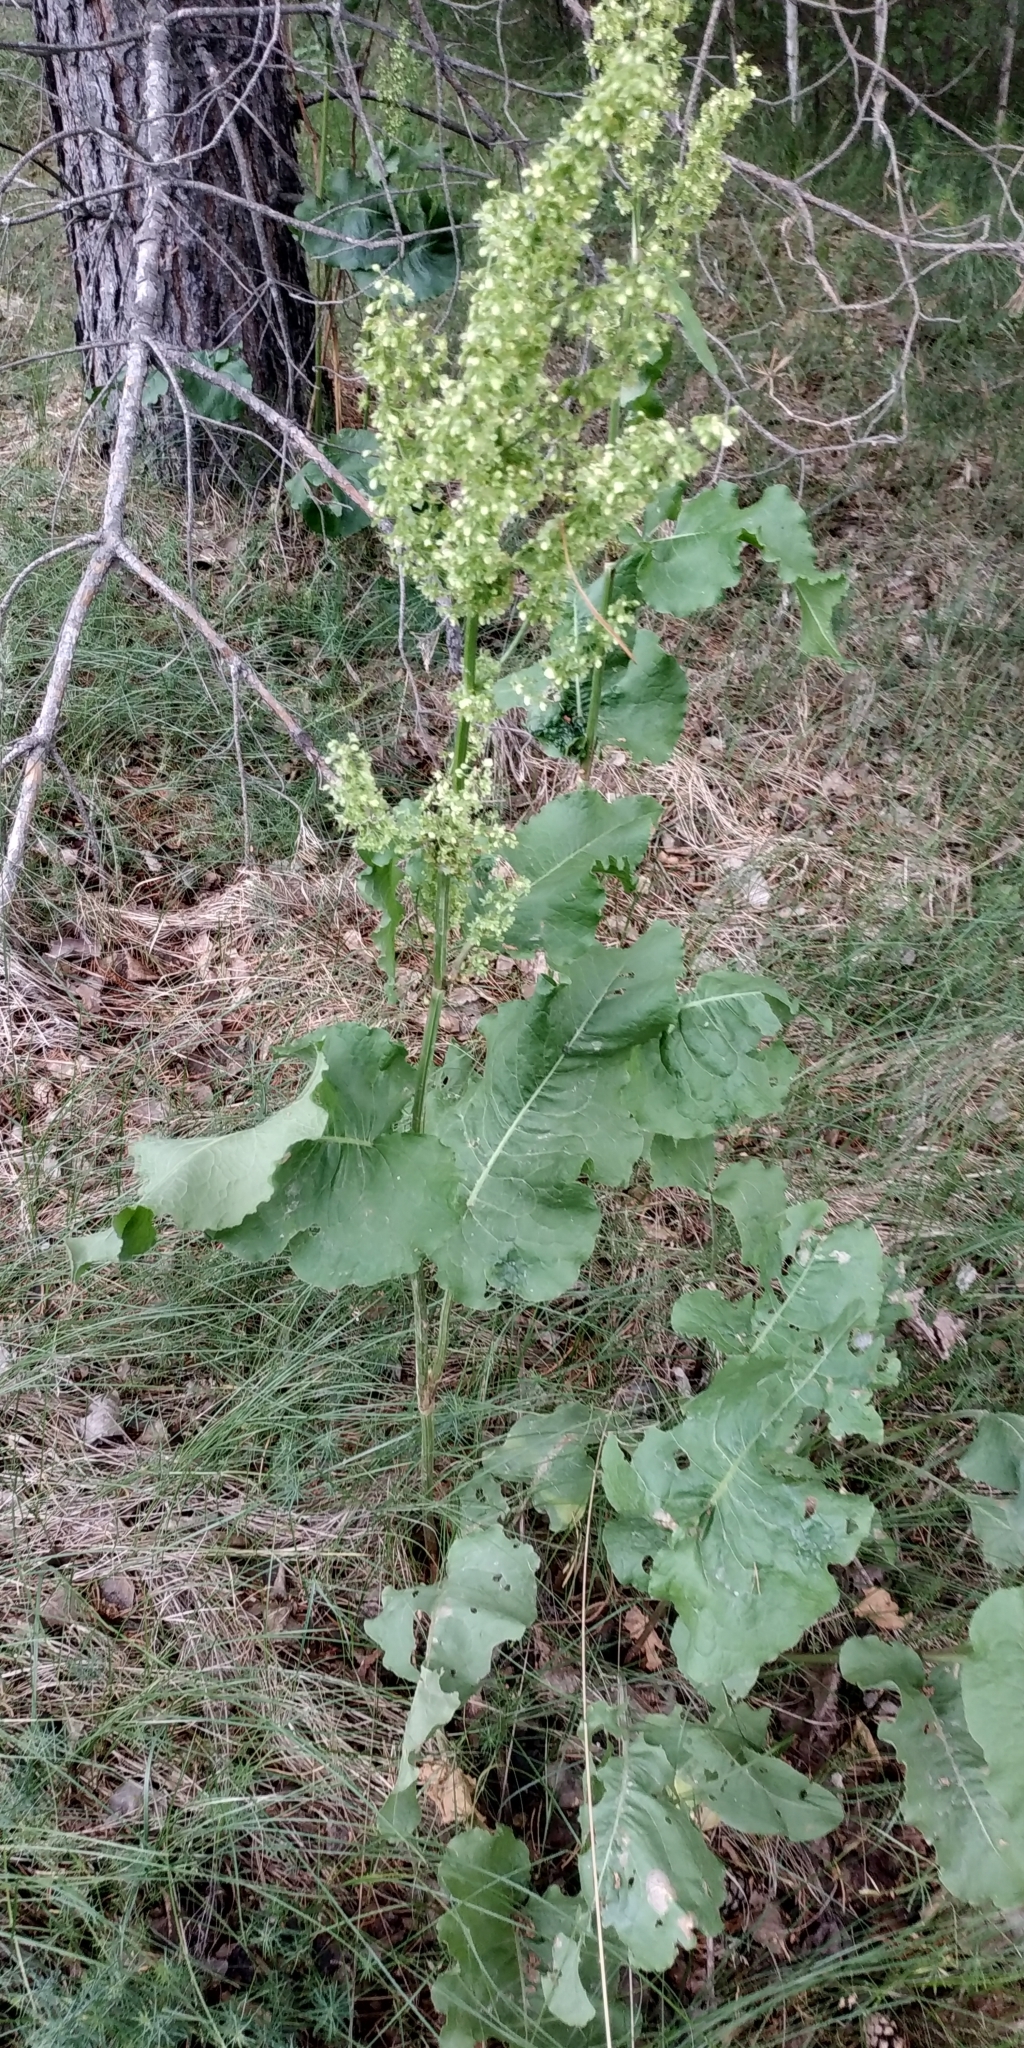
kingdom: Plantae
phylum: Tracheophyta
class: Magnoliopsida
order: Caryophyllales
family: Polygonaceae
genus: Rumex
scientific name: Rumex confertus
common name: Russian dock
